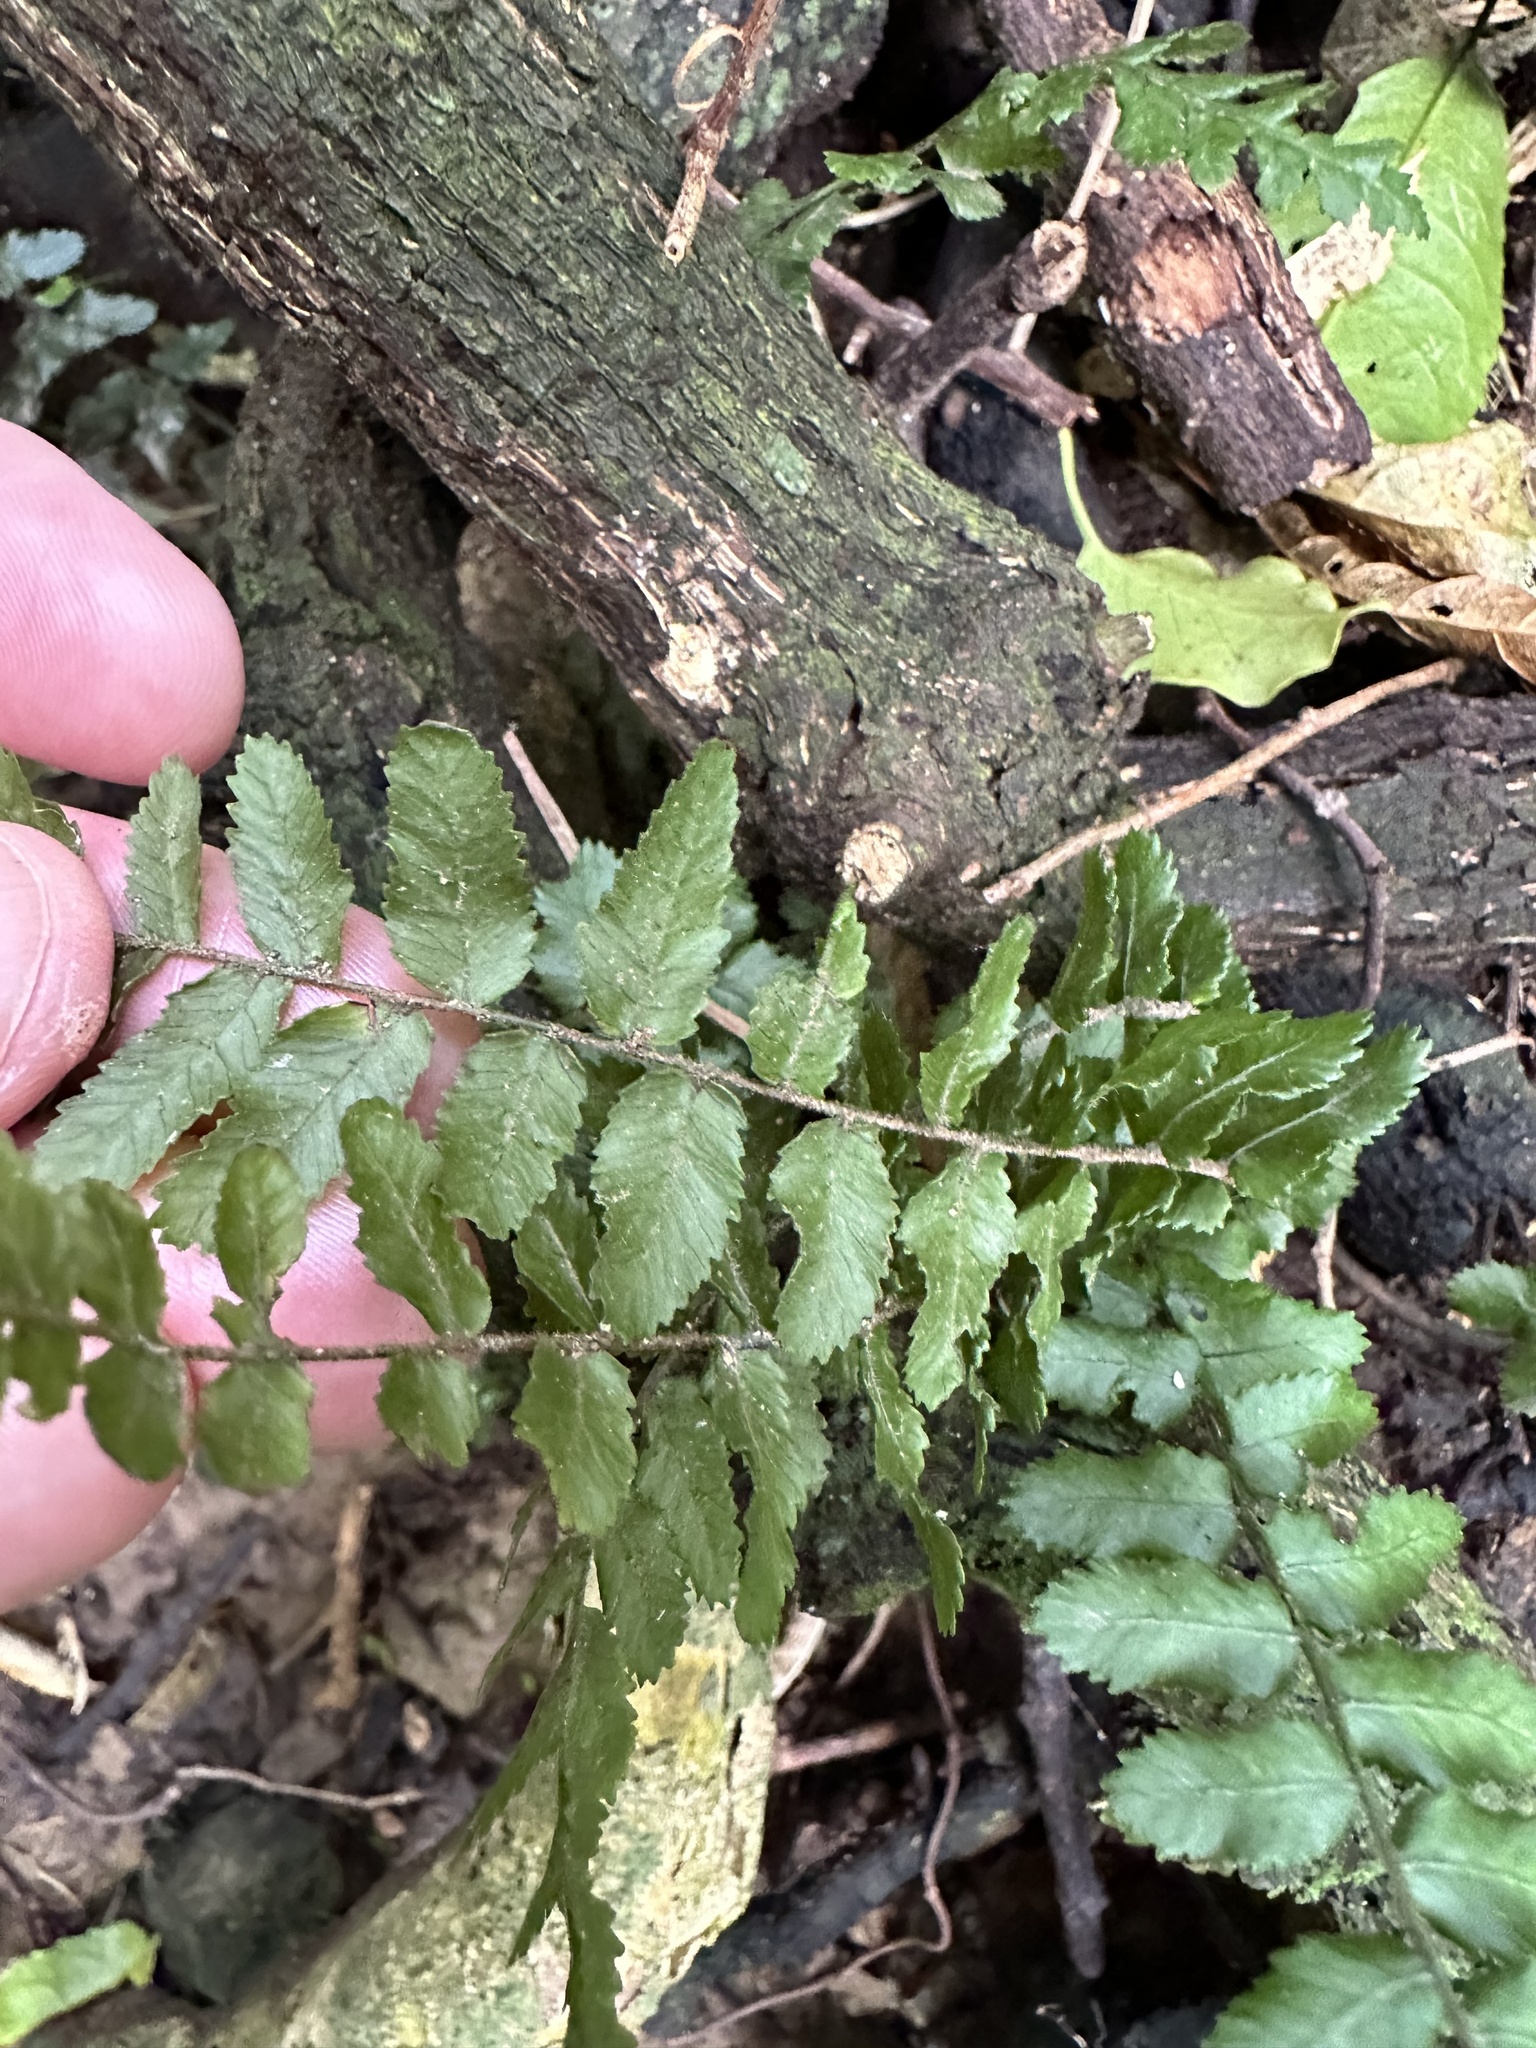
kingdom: Plantae
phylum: Tracheophyta
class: Polypodiopsida
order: Polypodiales
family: Blechnaceae
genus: Icarus
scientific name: Icarus filiformis
